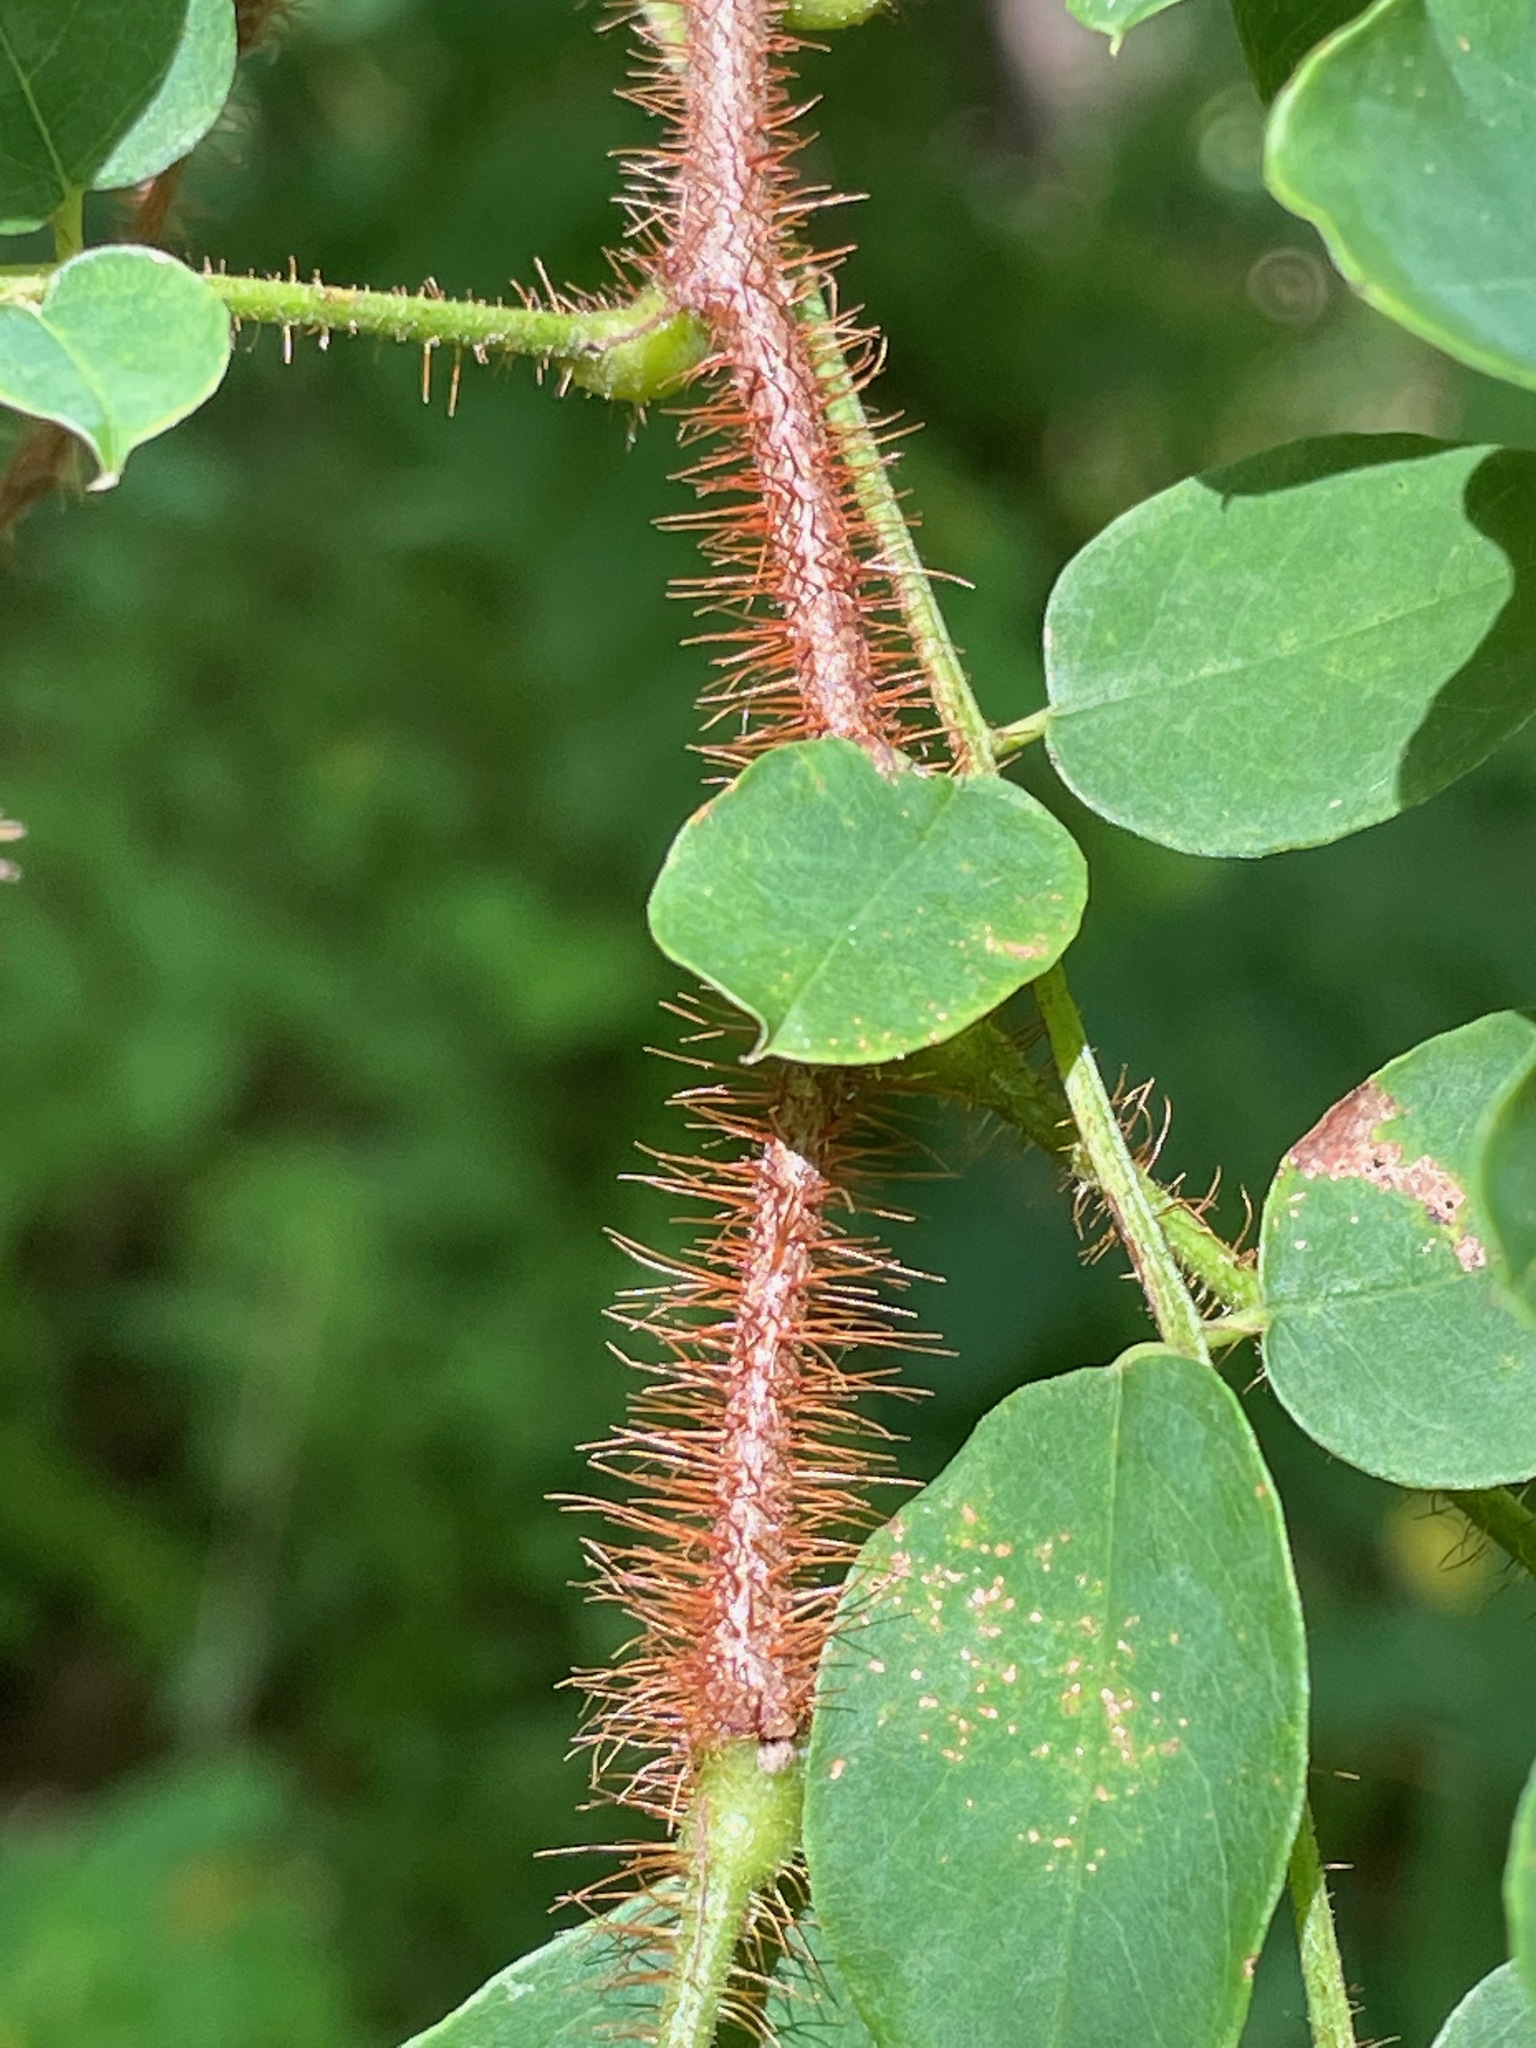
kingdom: Plantae
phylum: Tracheophyta
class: Magnoliopsida
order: Fabales
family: Fabaceae
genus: Robinia
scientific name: Robinia hispida
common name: Bristly locust
